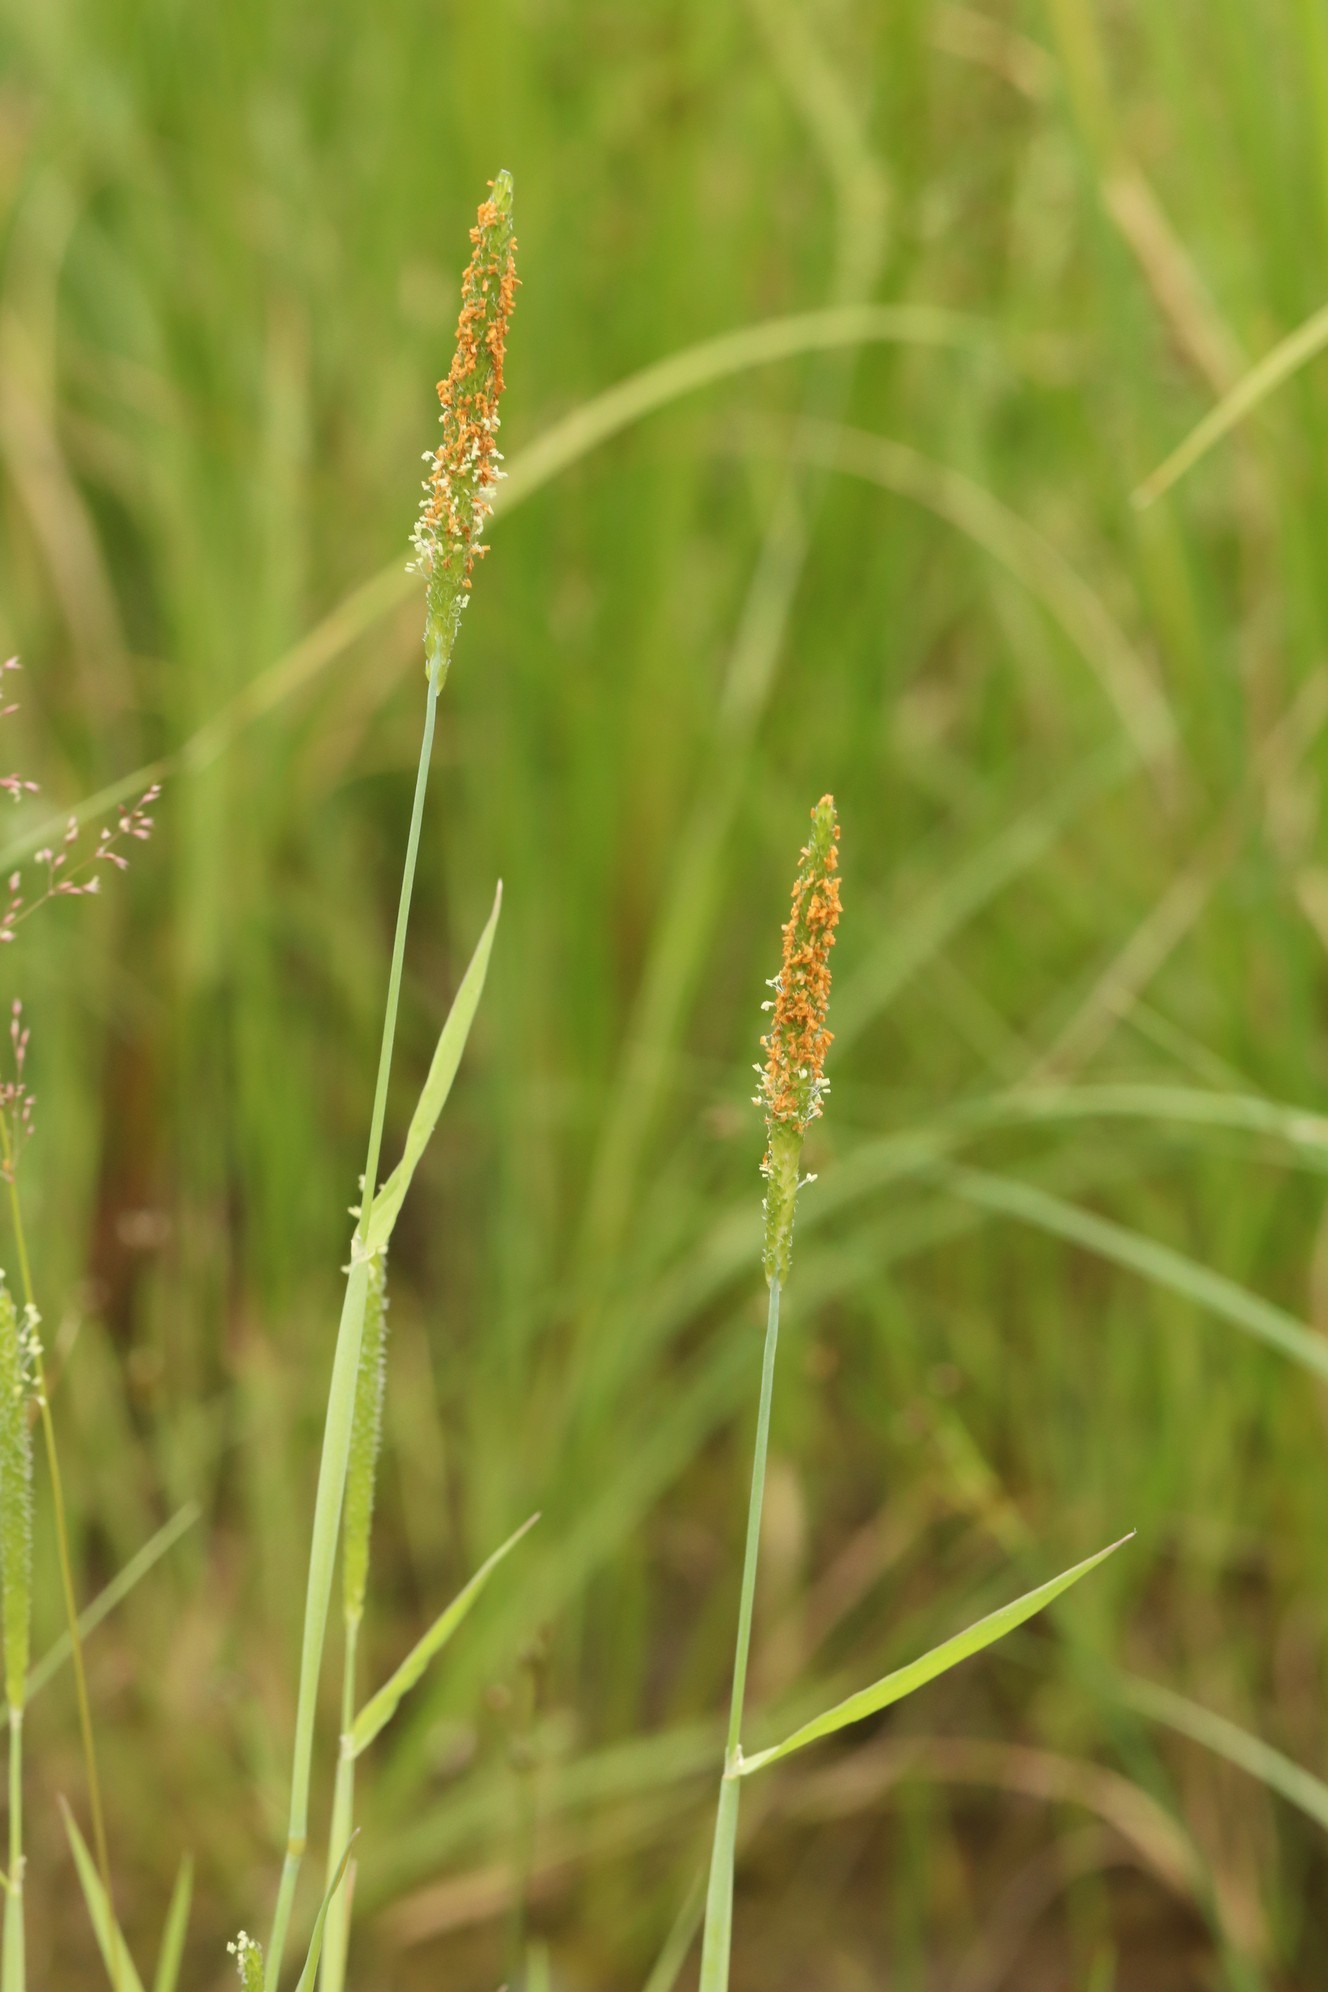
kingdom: Plantae
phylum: Tracheophyta
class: Liliopsida
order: Poales
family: Poaceae
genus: Alopecurus
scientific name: Alopecurus aequalis
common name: Orange foxtail
